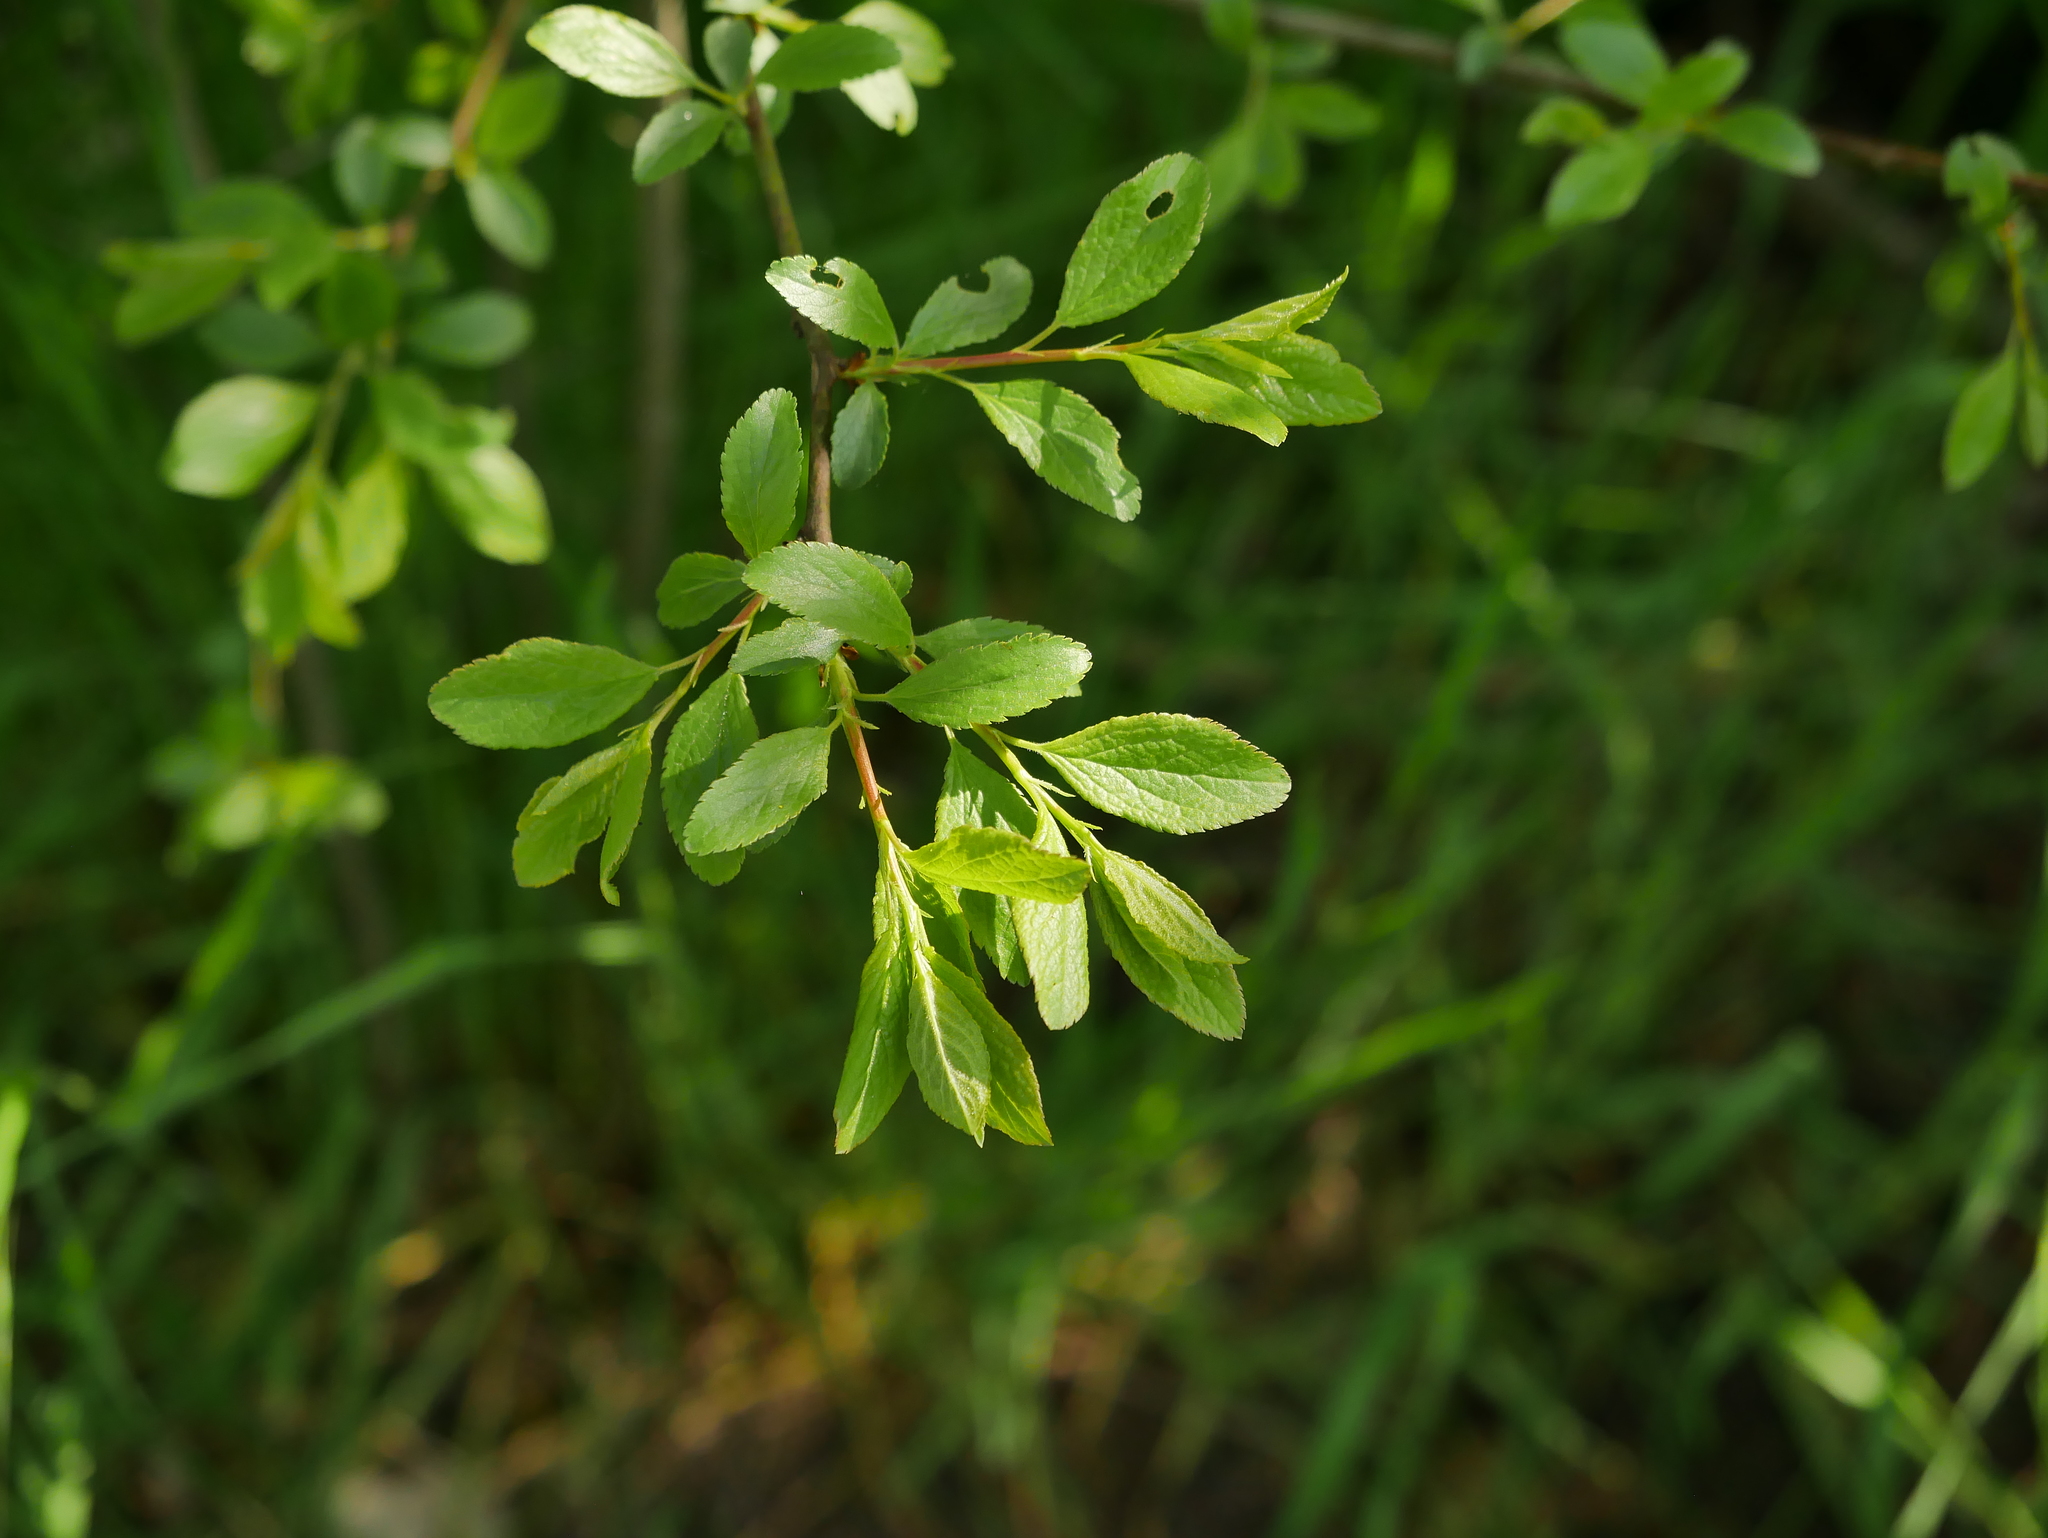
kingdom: Plantae
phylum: Tracheophyta
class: Magnoliopsida
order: Rosales
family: Rosaceae
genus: Prunus
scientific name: Prunus spinosa
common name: Blackthorn
